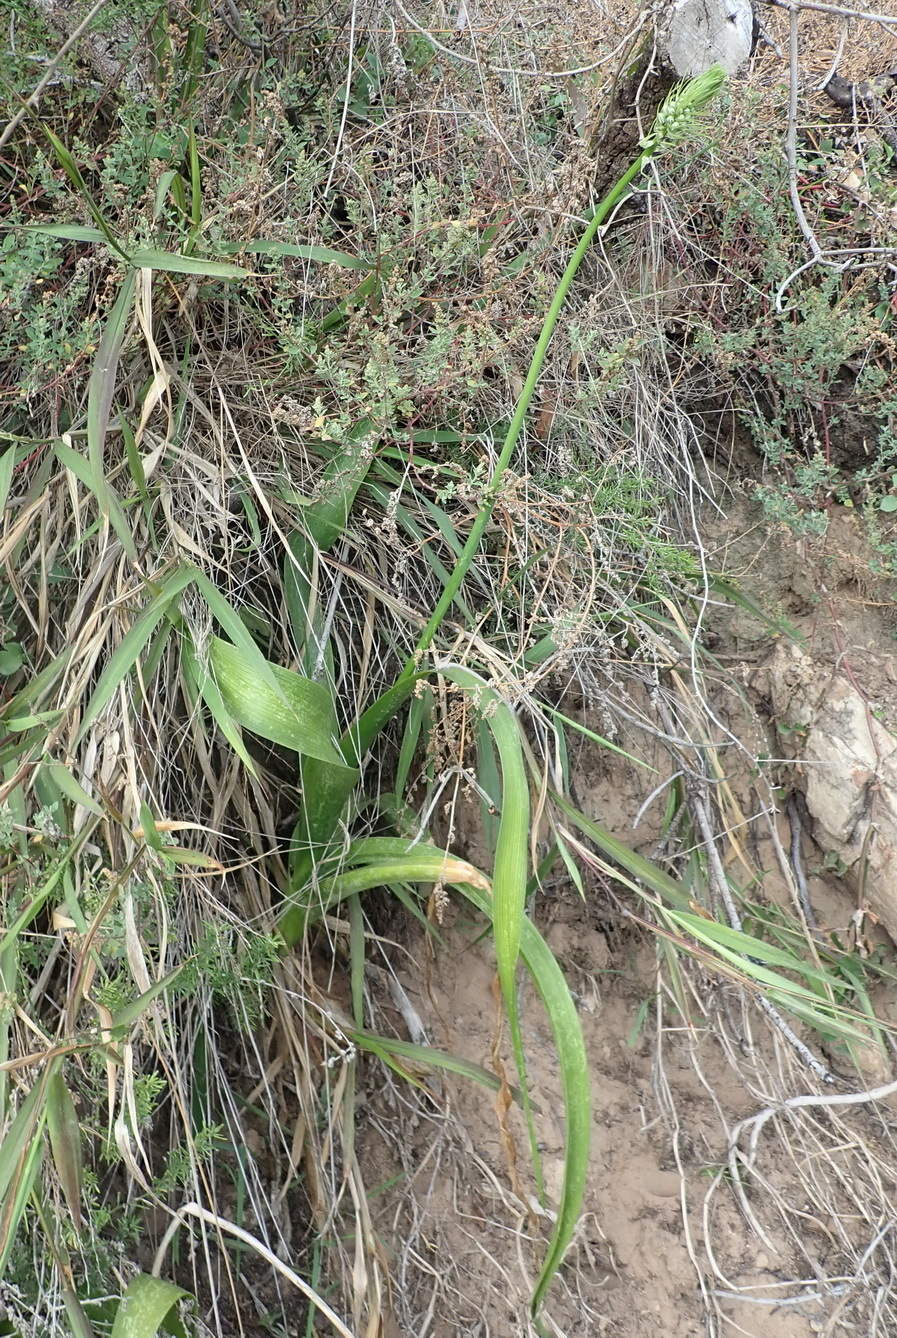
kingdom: Plantae
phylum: Tracheophyta
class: Liliopsida
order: Asparagales
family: Asparagaceae
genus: Albuca
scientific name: Albuca bracteata
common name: Sea-onion
